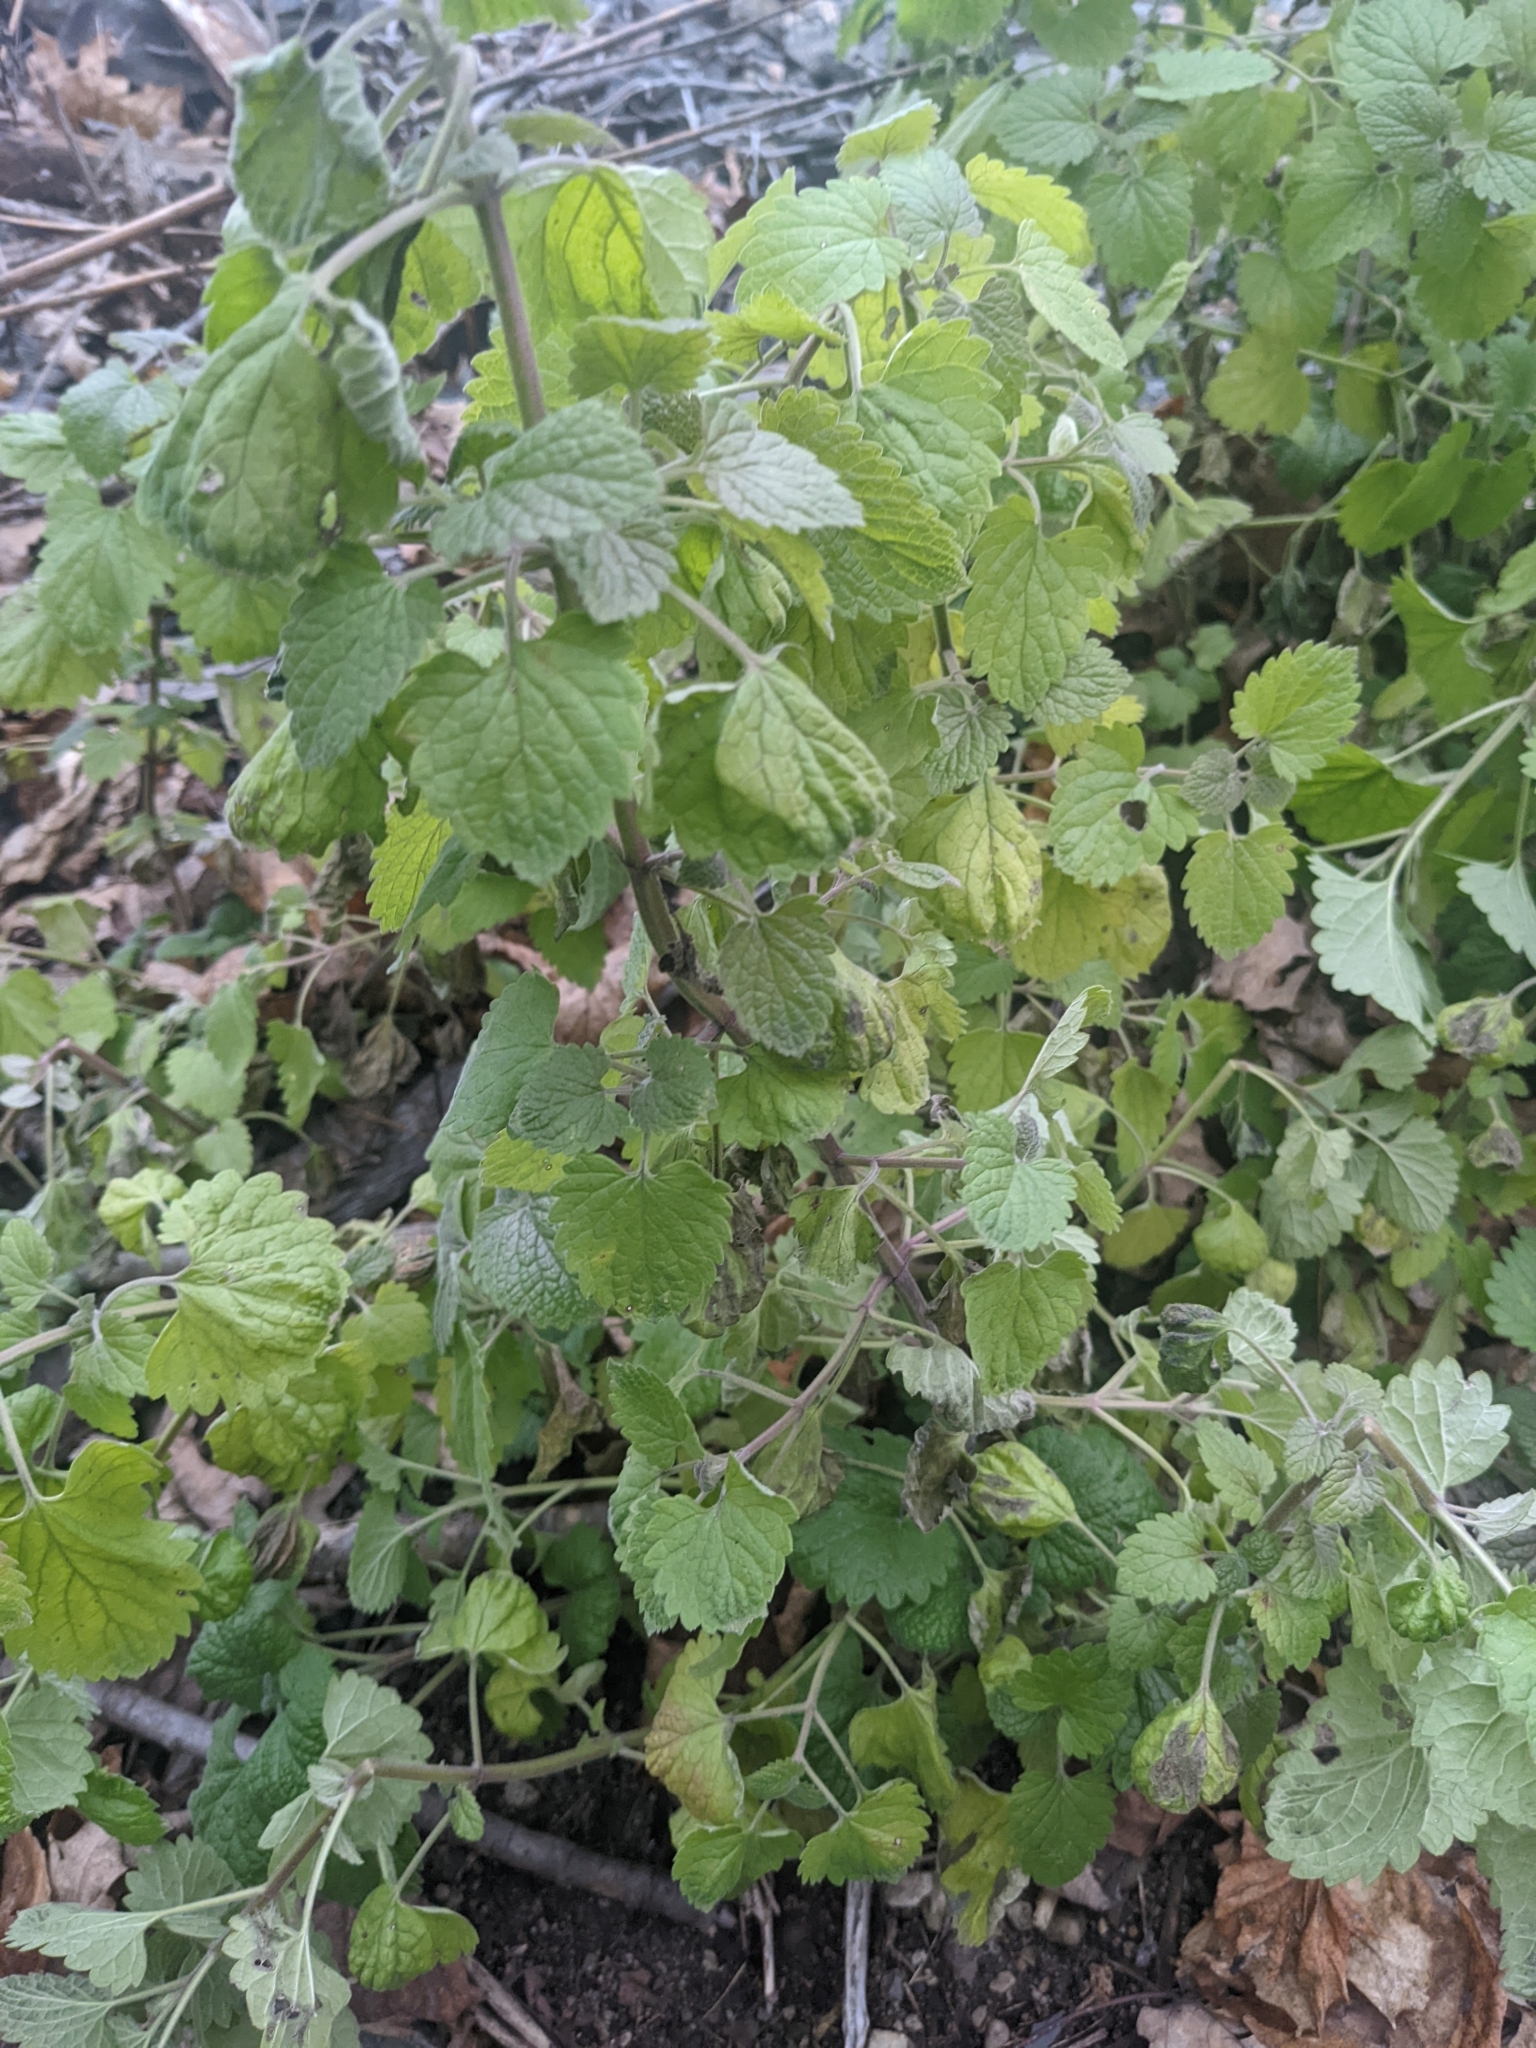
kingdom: Plantae
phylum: Tracheophyta
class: Magnoliopsida
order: Lamiales
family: Lamiaceae
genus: Nepeta
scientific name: Nepeta cataria
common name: Catnip
